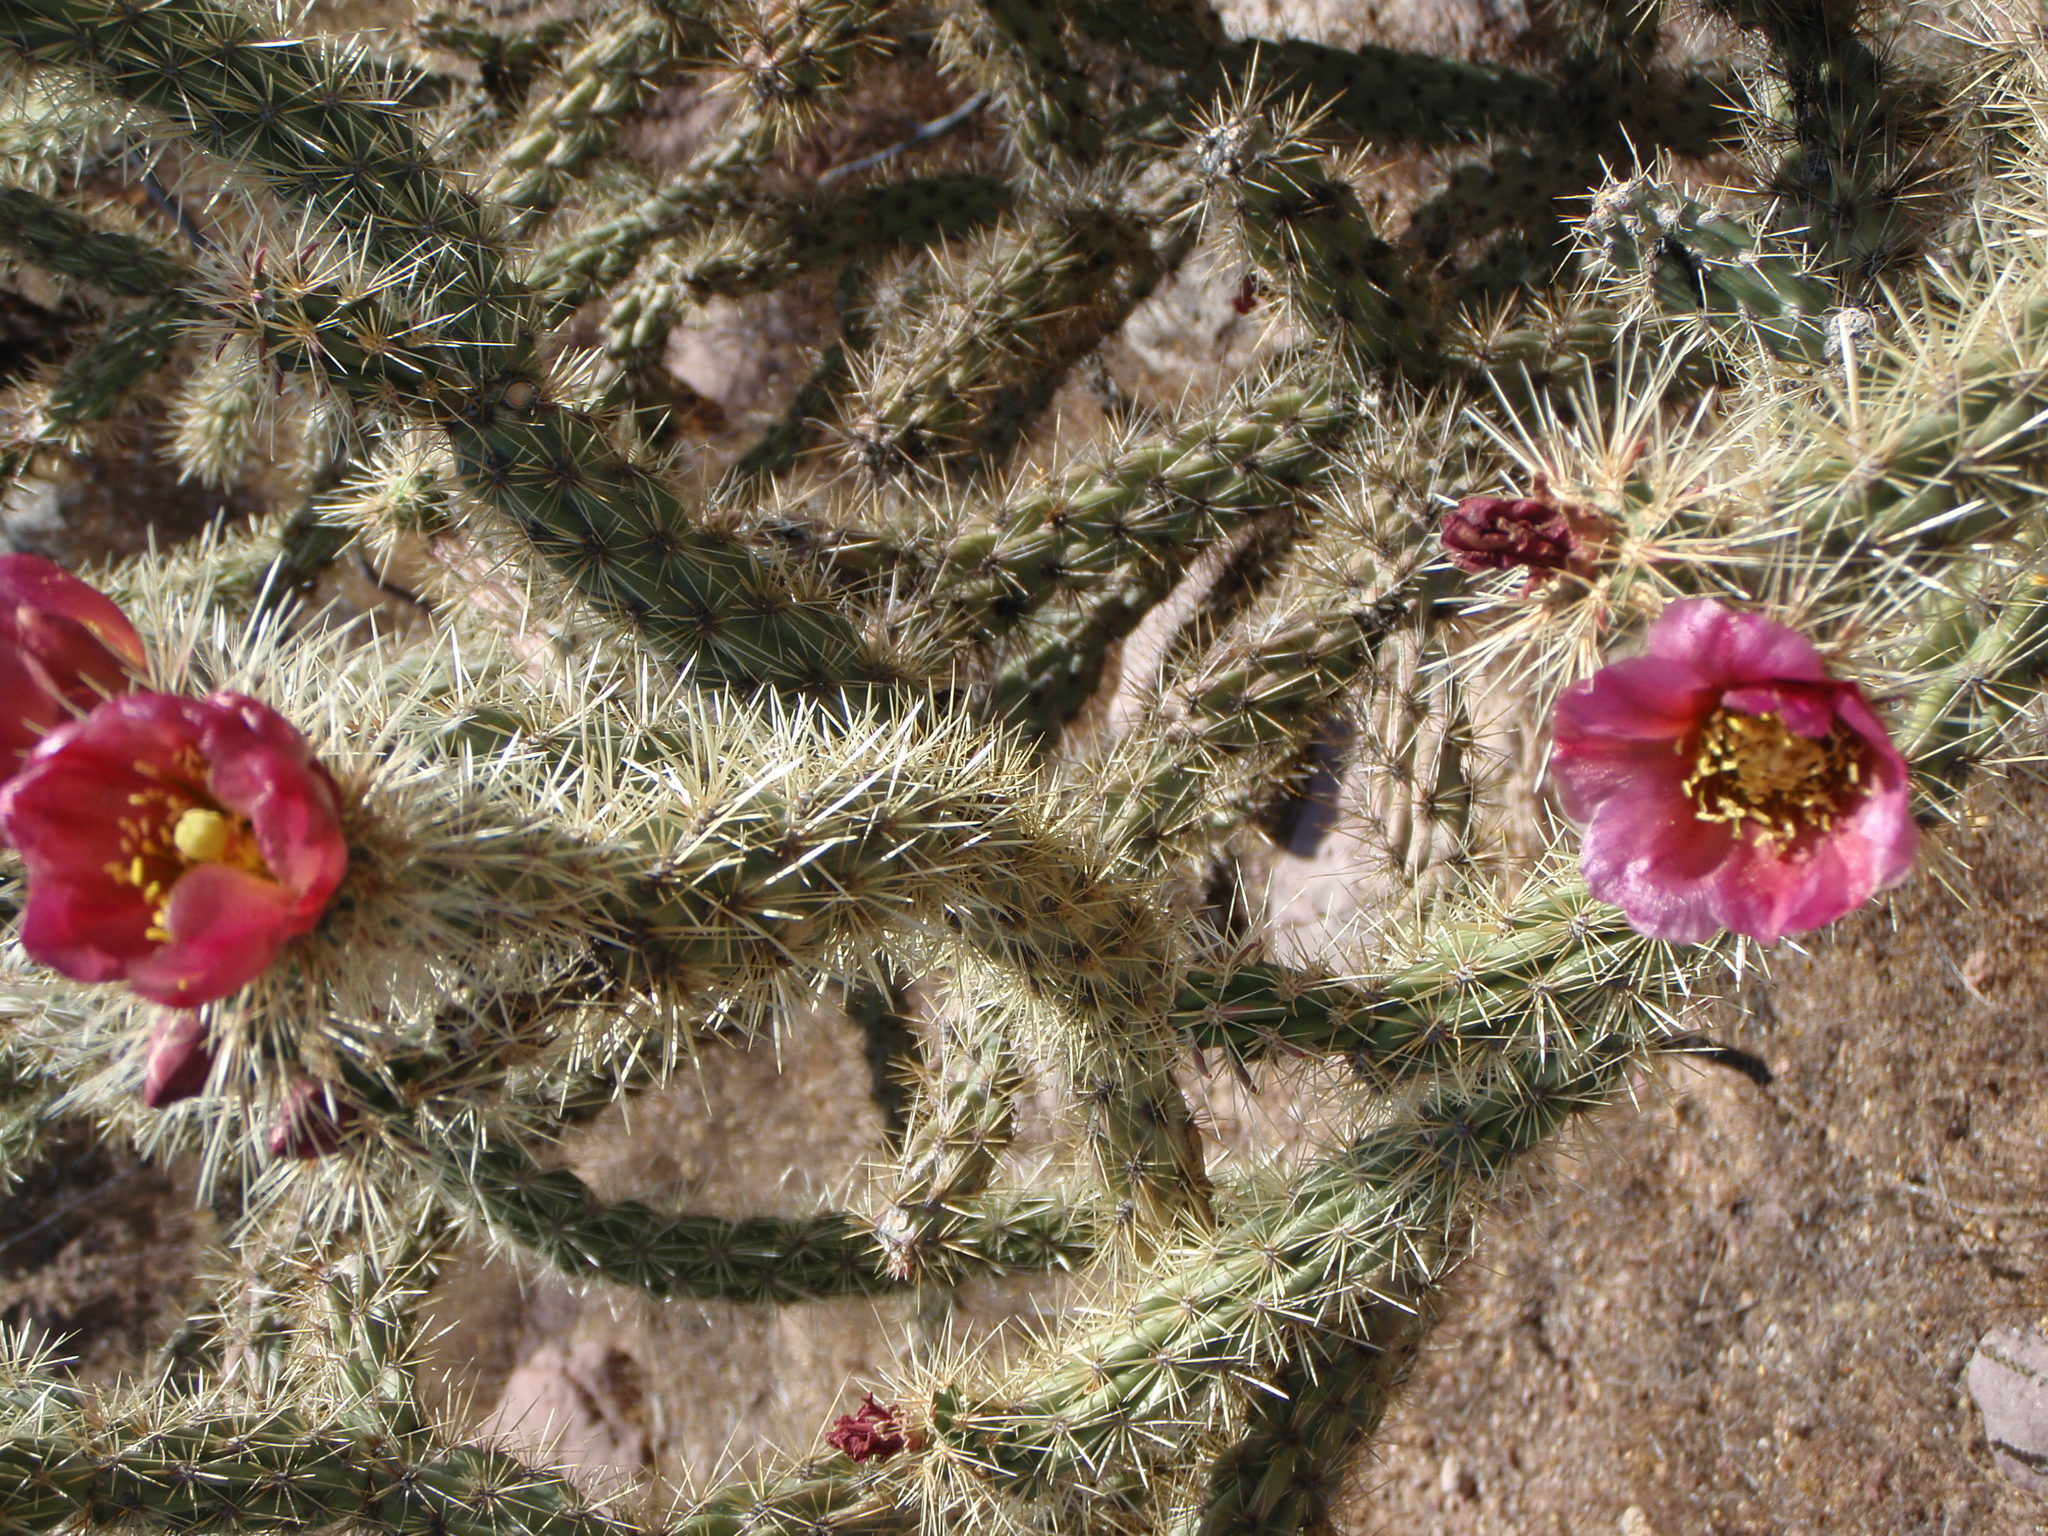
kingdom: Plantae
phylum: Tracheophyta
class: Magnoliopsida
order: Caryophyllales
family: Cactaceae
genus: Cylindropuntia
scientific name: Cylindropuntia imbricata
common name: Candelabrum cactus
